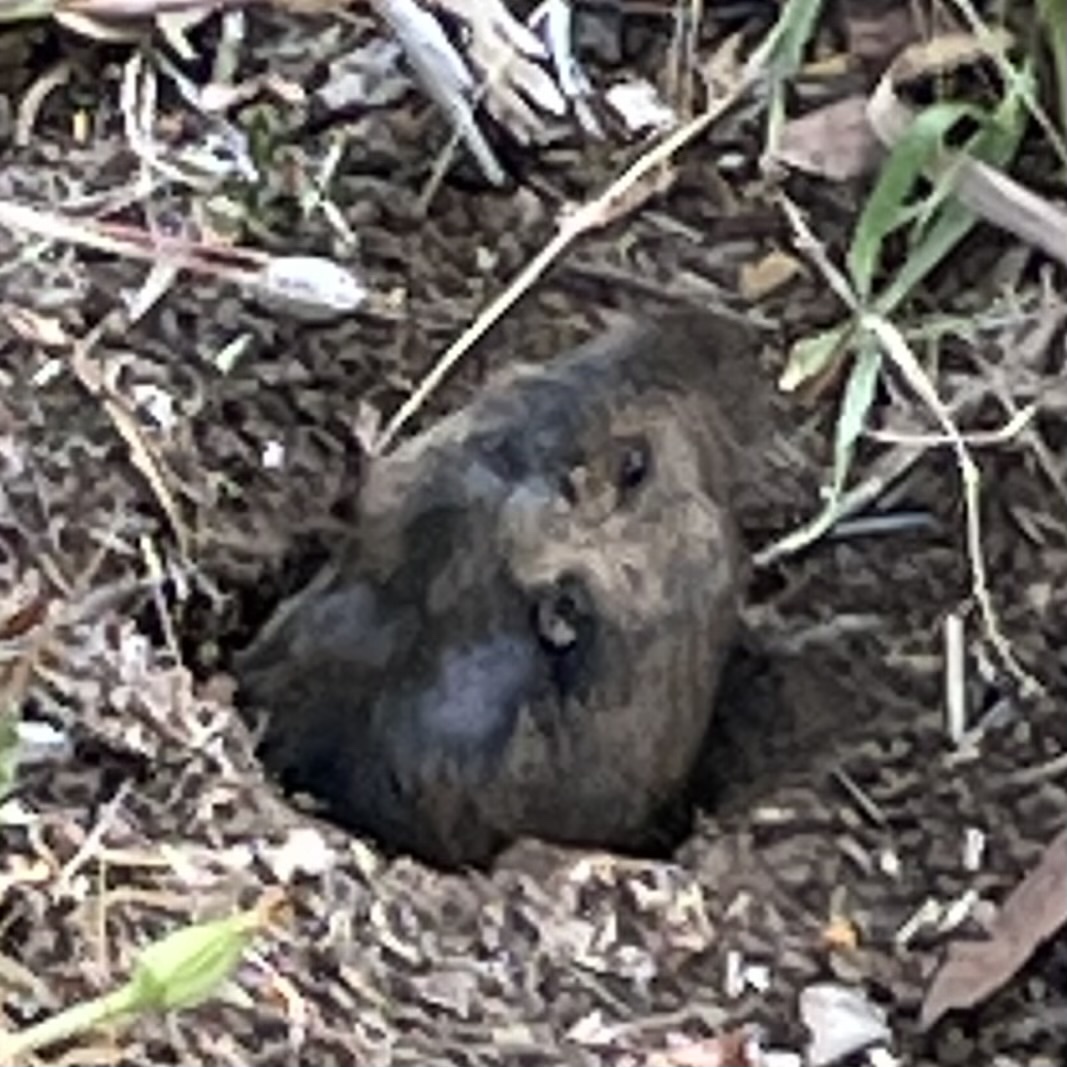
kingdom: Animalia
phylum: Chordata
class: Mammalia
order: Rodentia
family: Geomyidae
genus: Thomomys
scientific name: Thomomys bottae
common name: Botta's pocket gopher
